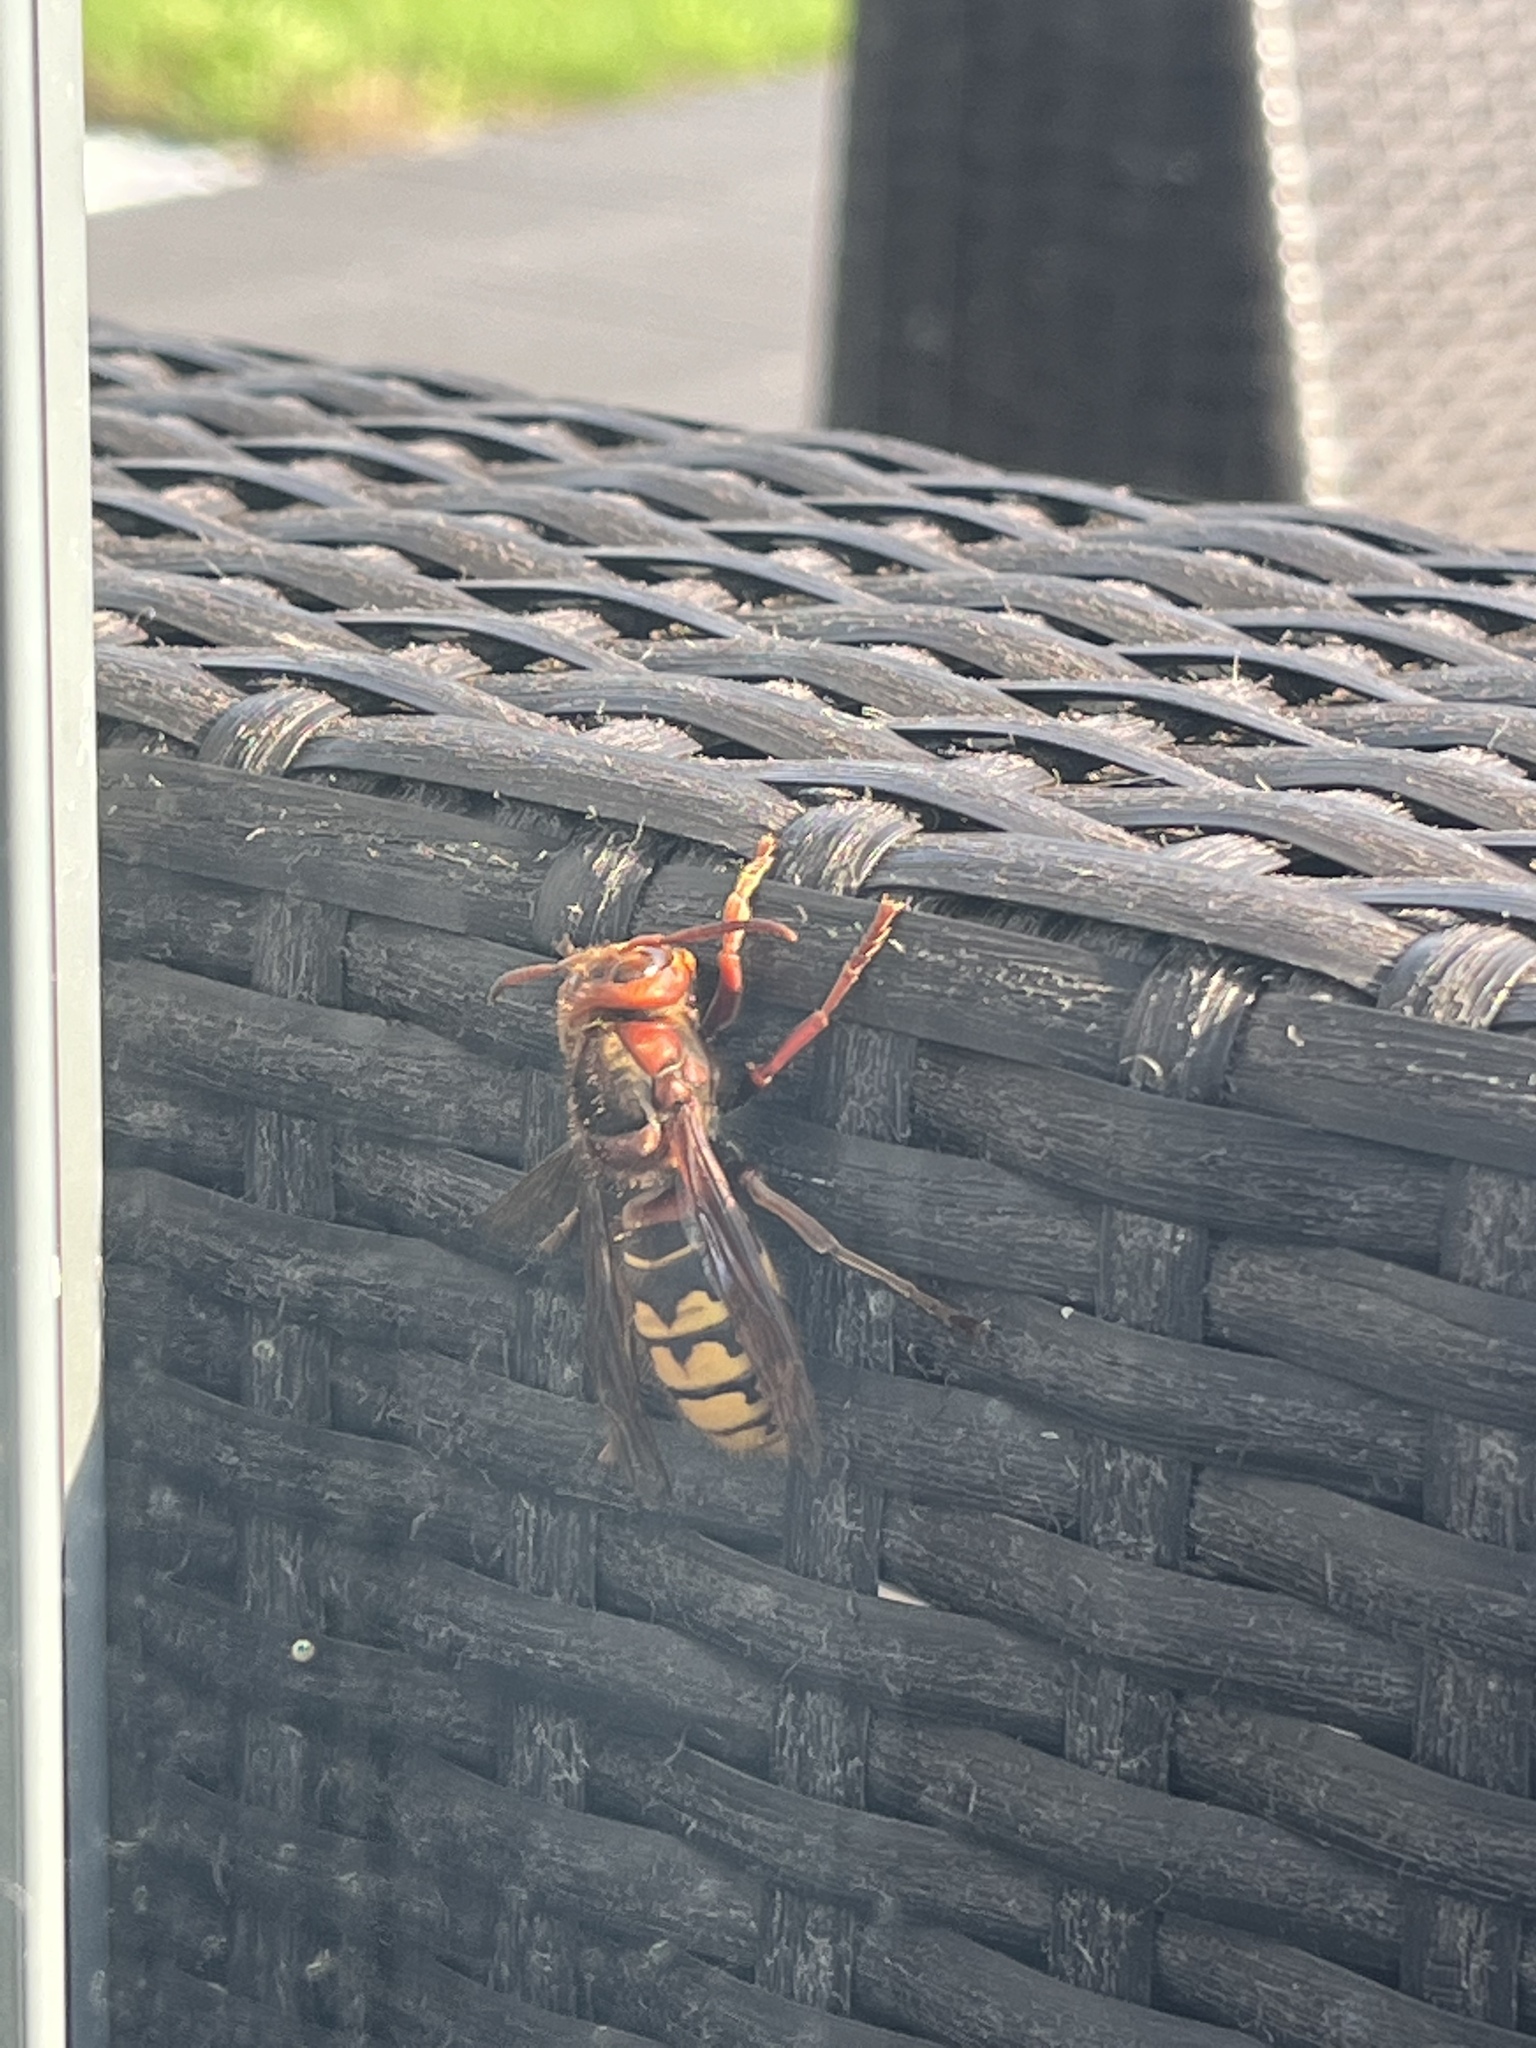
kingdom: Animalia
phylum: Arthropoda
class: Insecta
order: Hymenoptera
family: Vespidae
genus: Vespa
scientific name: Vespa crabro
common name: Hornet
